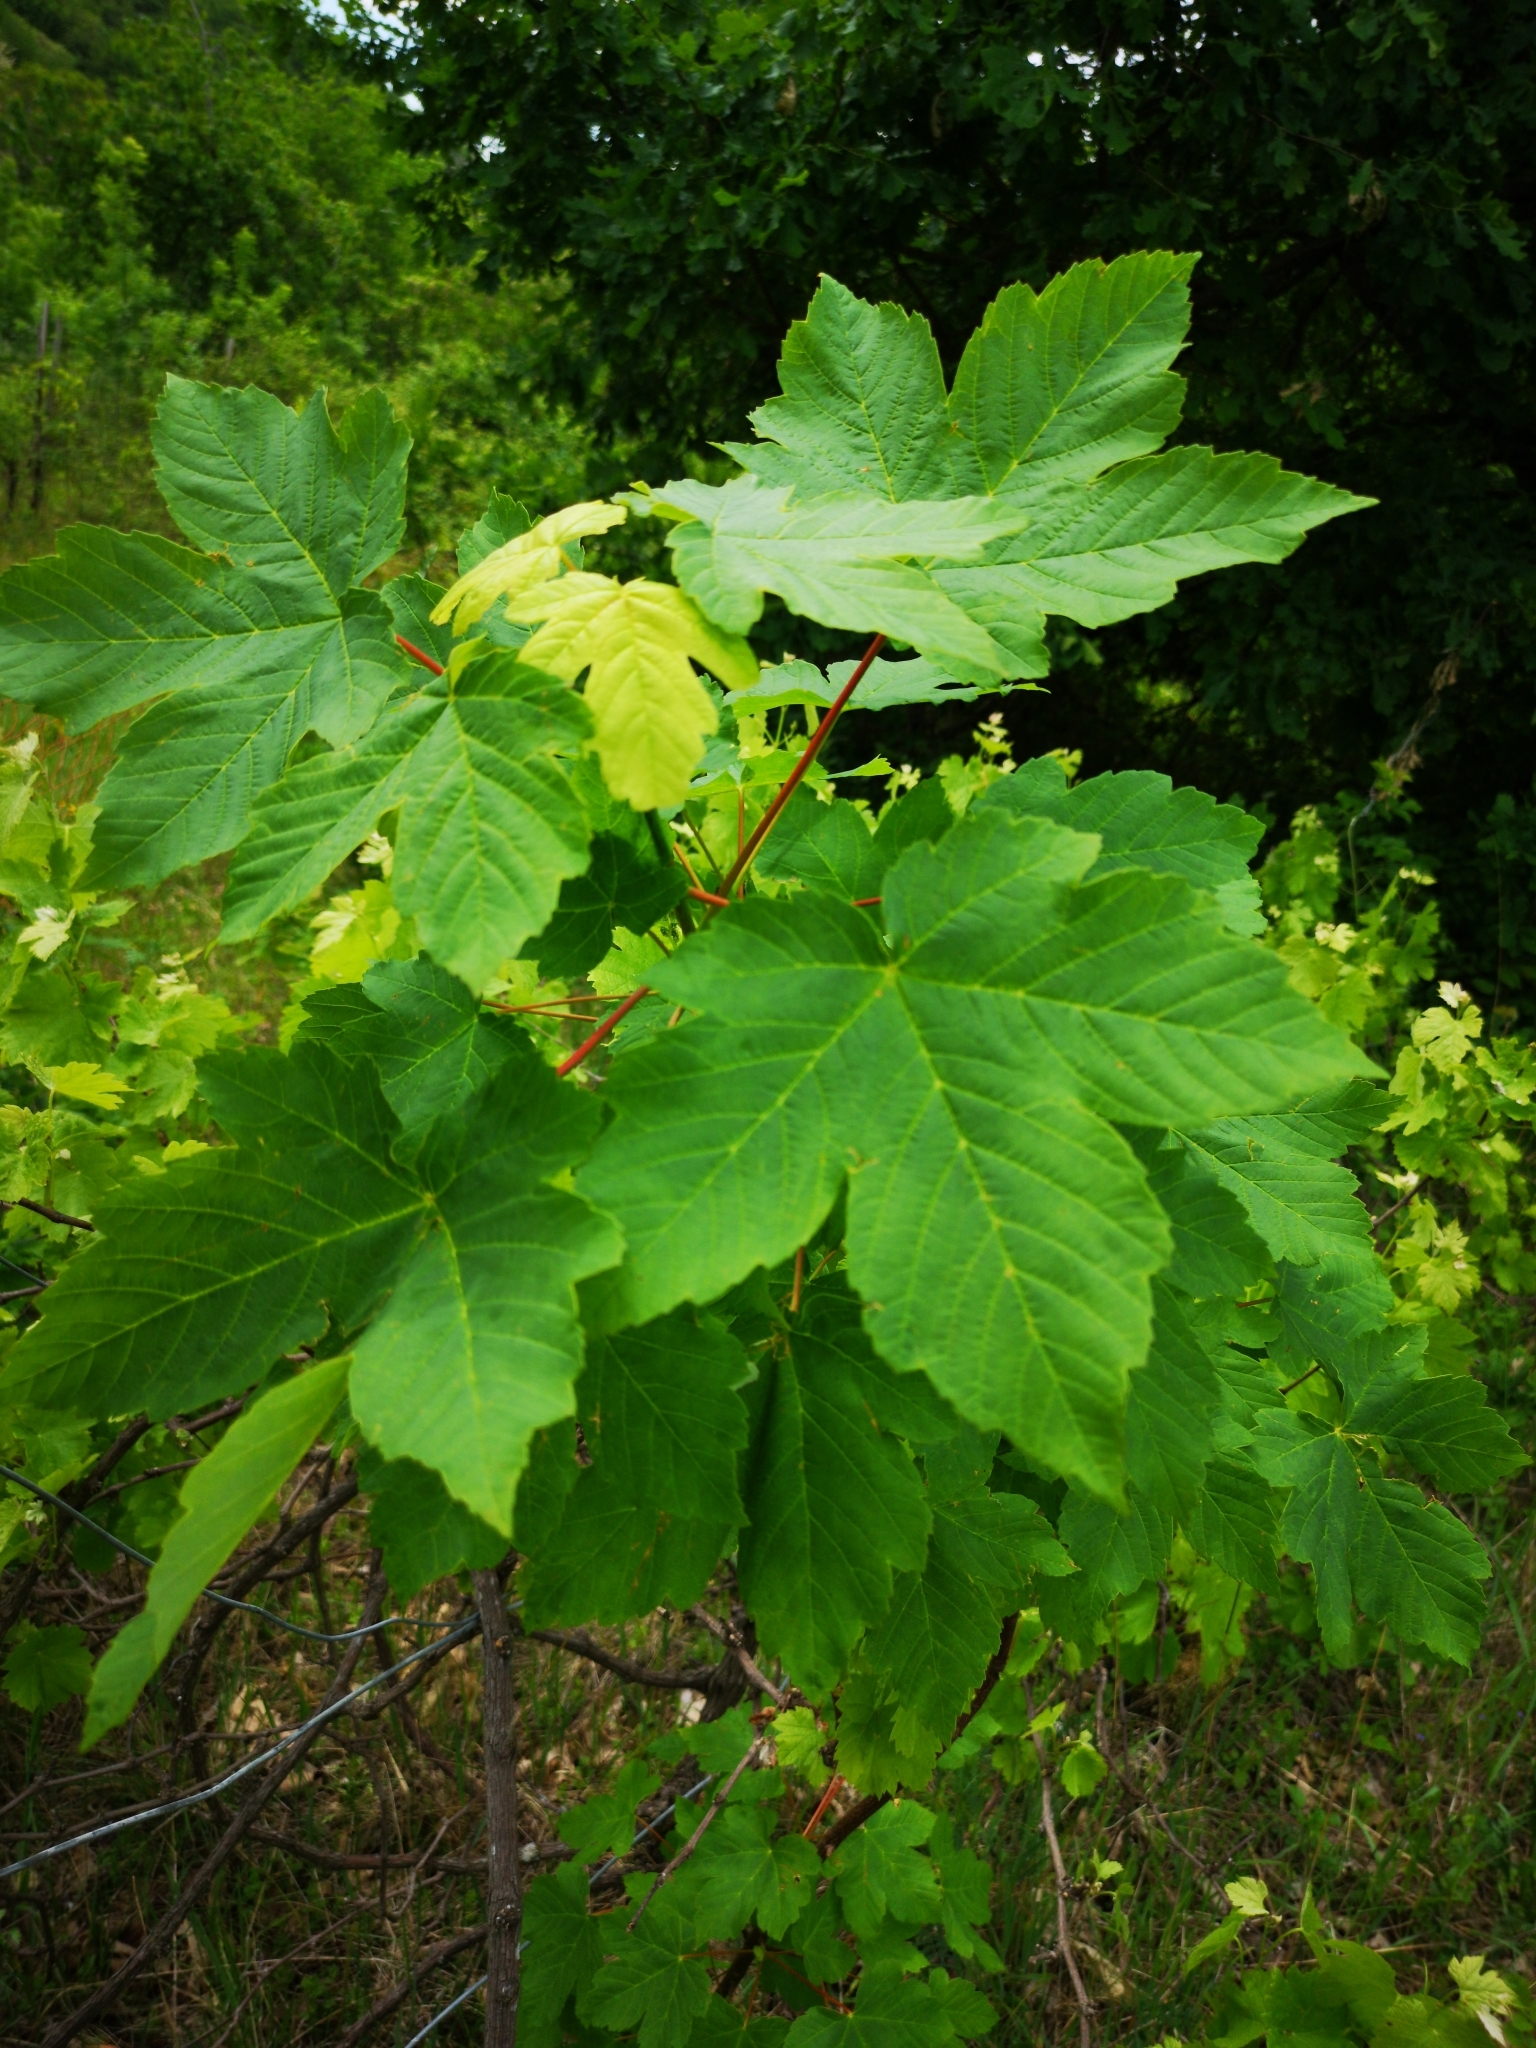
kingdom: Plantae
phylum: Tracheophyta
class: Magnoliopsida
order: Sapindales
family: Sapindaceae
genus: Acer
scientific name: Acer pseudoplatanus
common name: Sycamore
